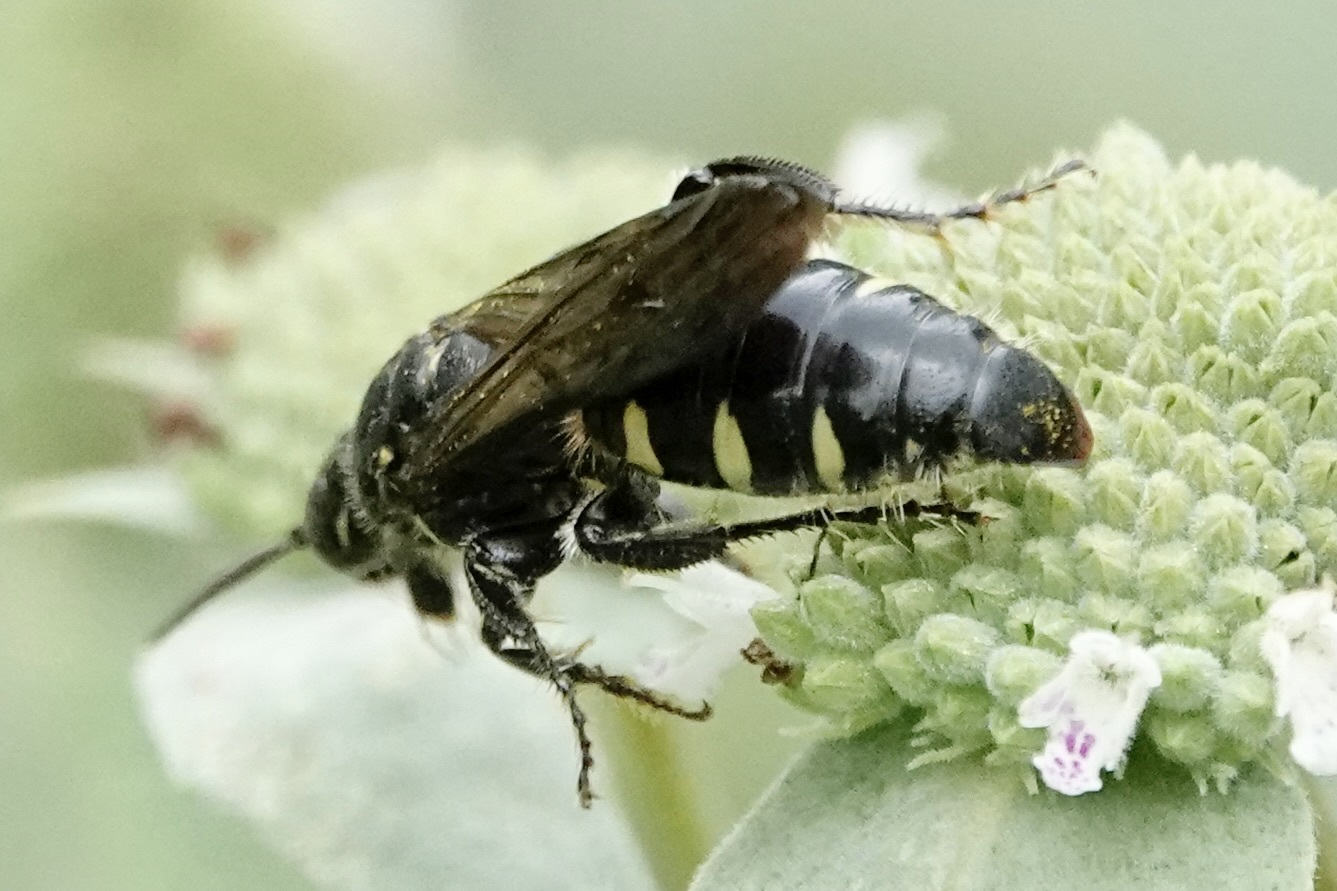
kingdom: Animalia
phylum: Arthropoda
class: Insecta
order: Hymenoptera
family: Tiphiidae
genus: Myzinum
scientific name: Myzinum obscurum
